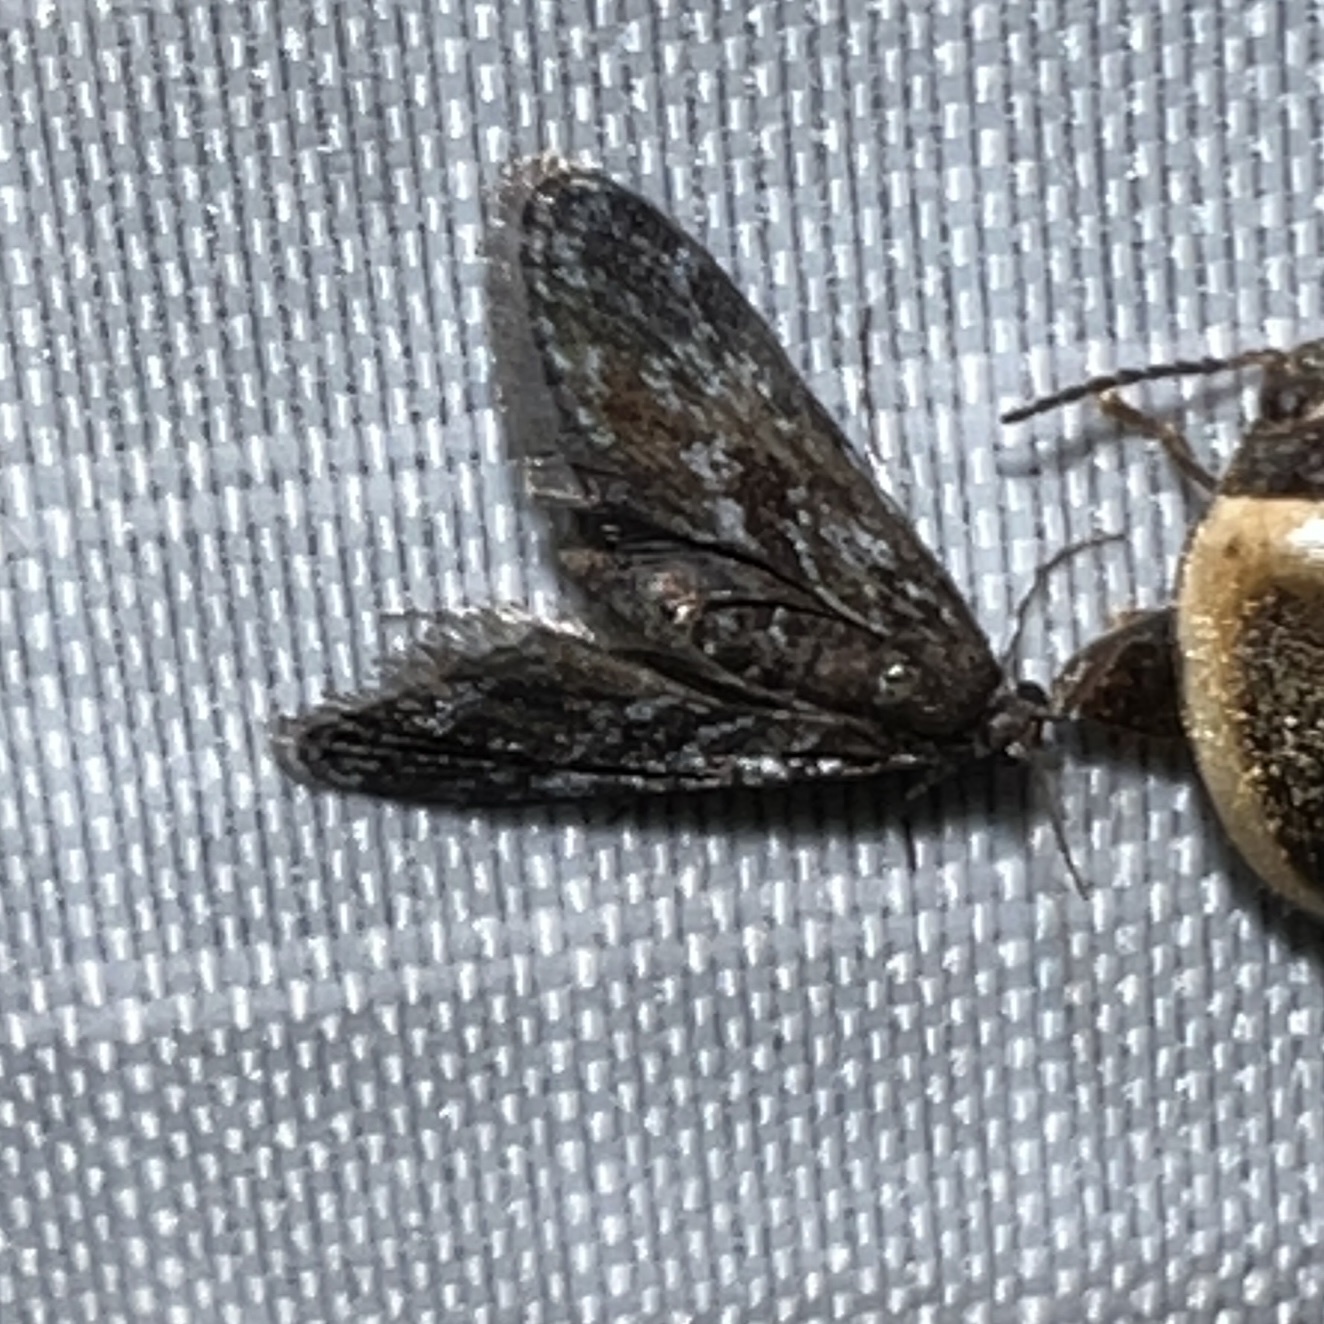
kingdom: Animalia
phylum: Arthropoda
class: Insecta
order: Lepidoptera
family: Crambidae
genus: Elophila
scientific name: Elophila tinealis
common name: Black duckweed moth
